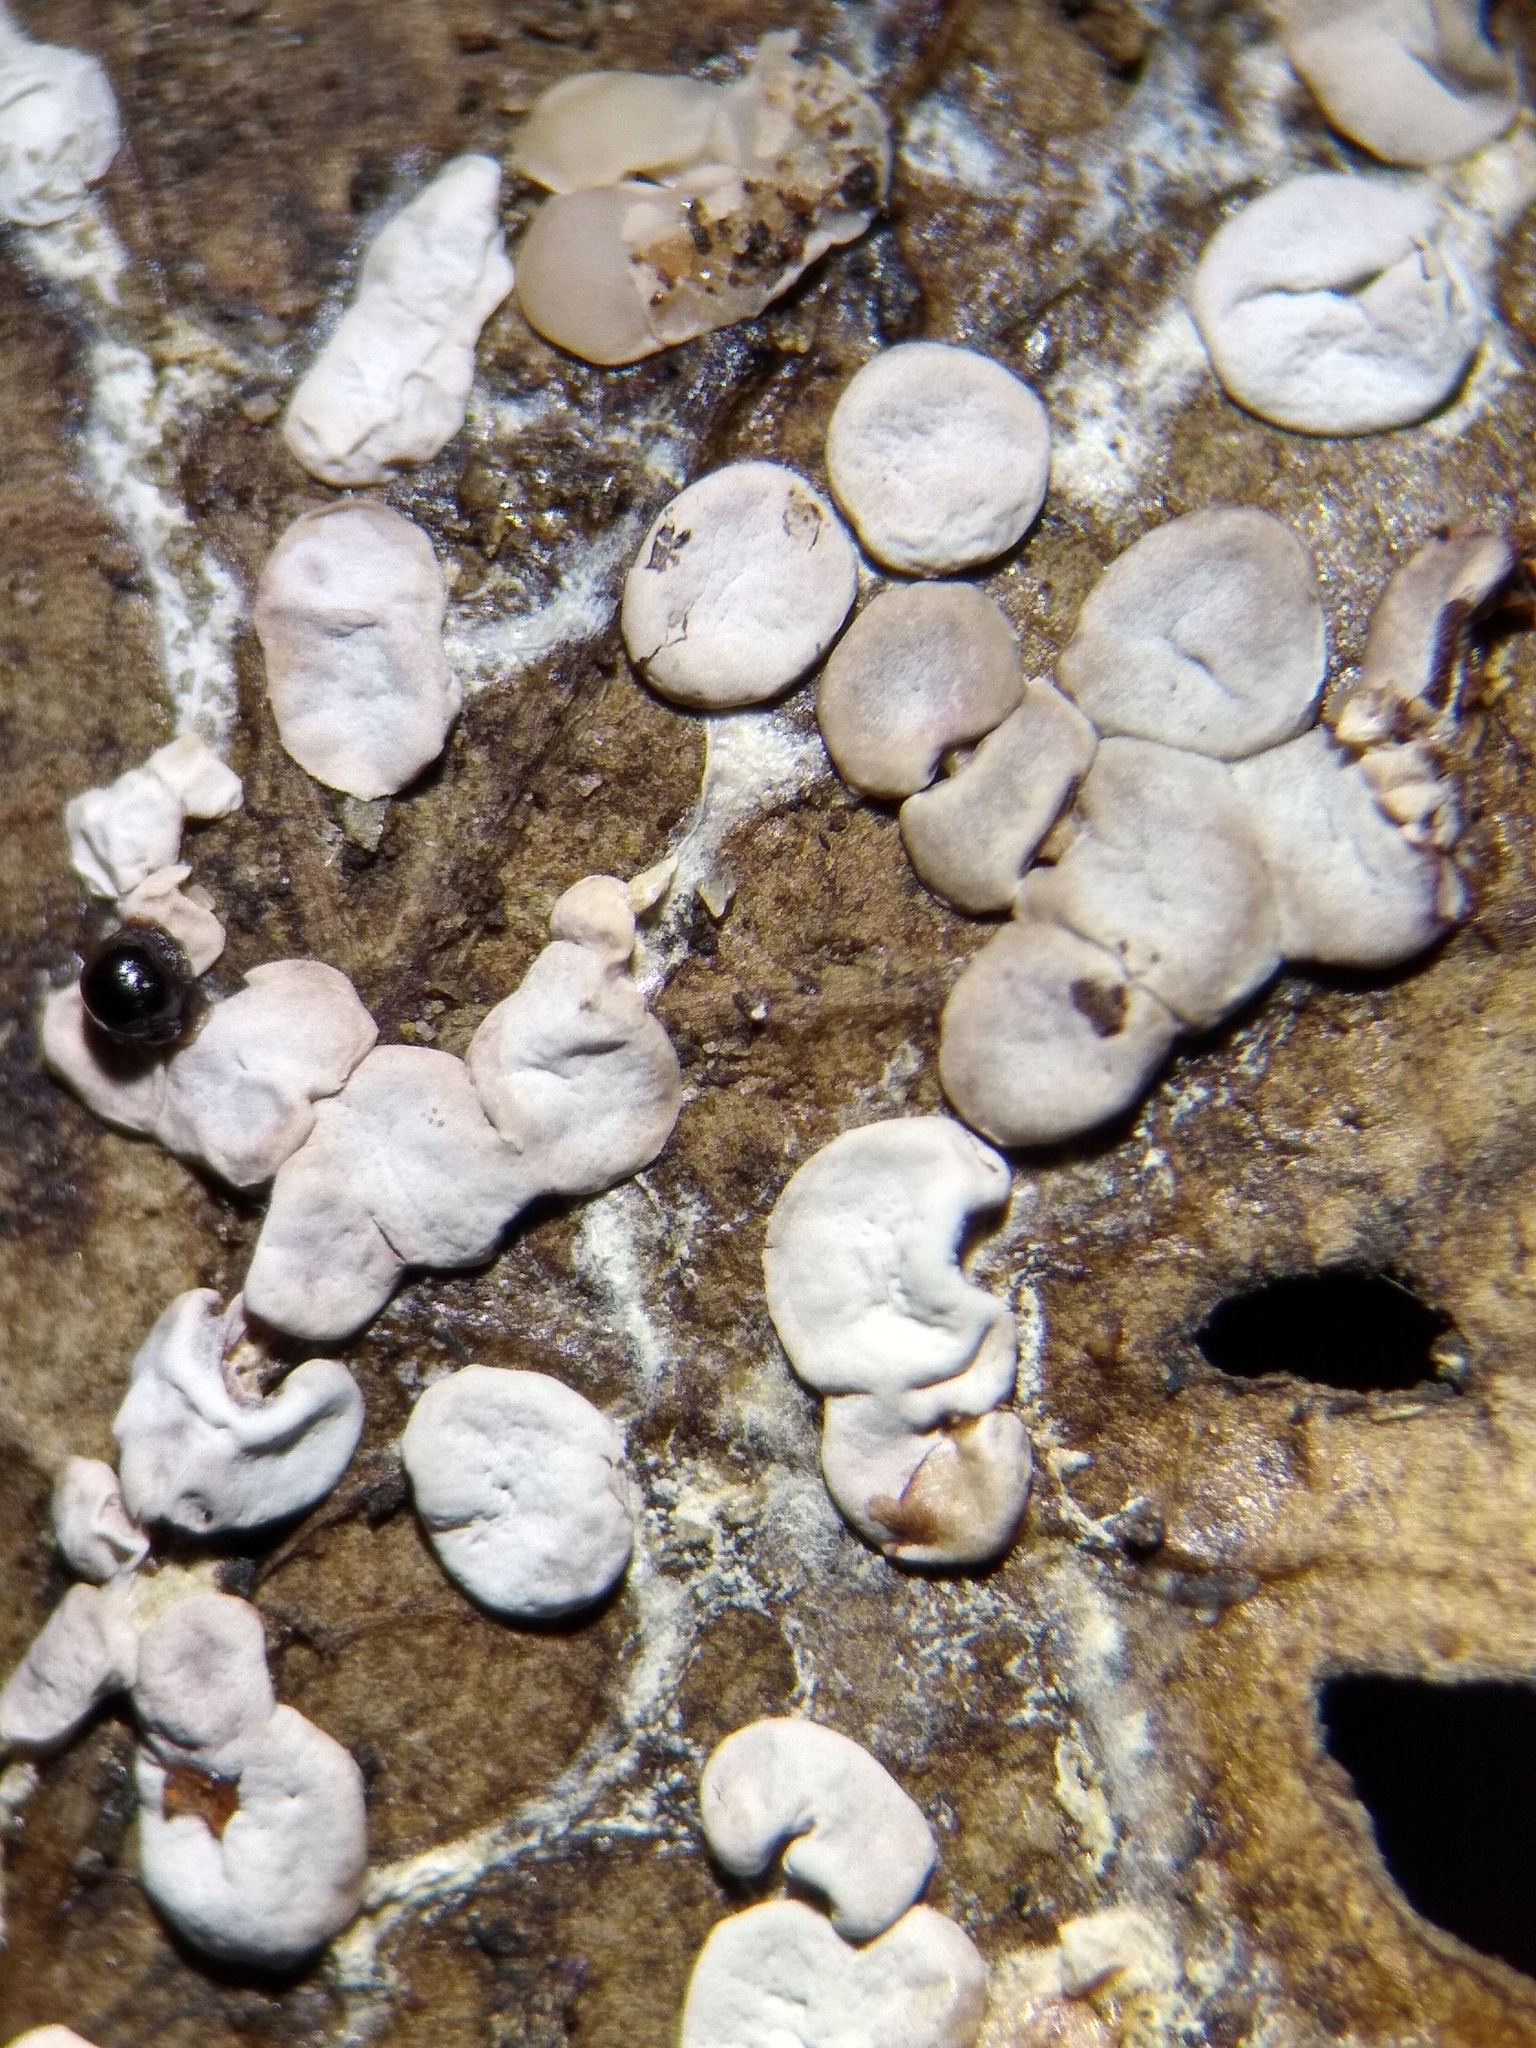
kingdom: Protozoa
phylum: Mycetozoa
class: Myxomycetes
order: Physarales
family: Didymiaceae
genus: Diderma
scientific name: Diderma effusum
